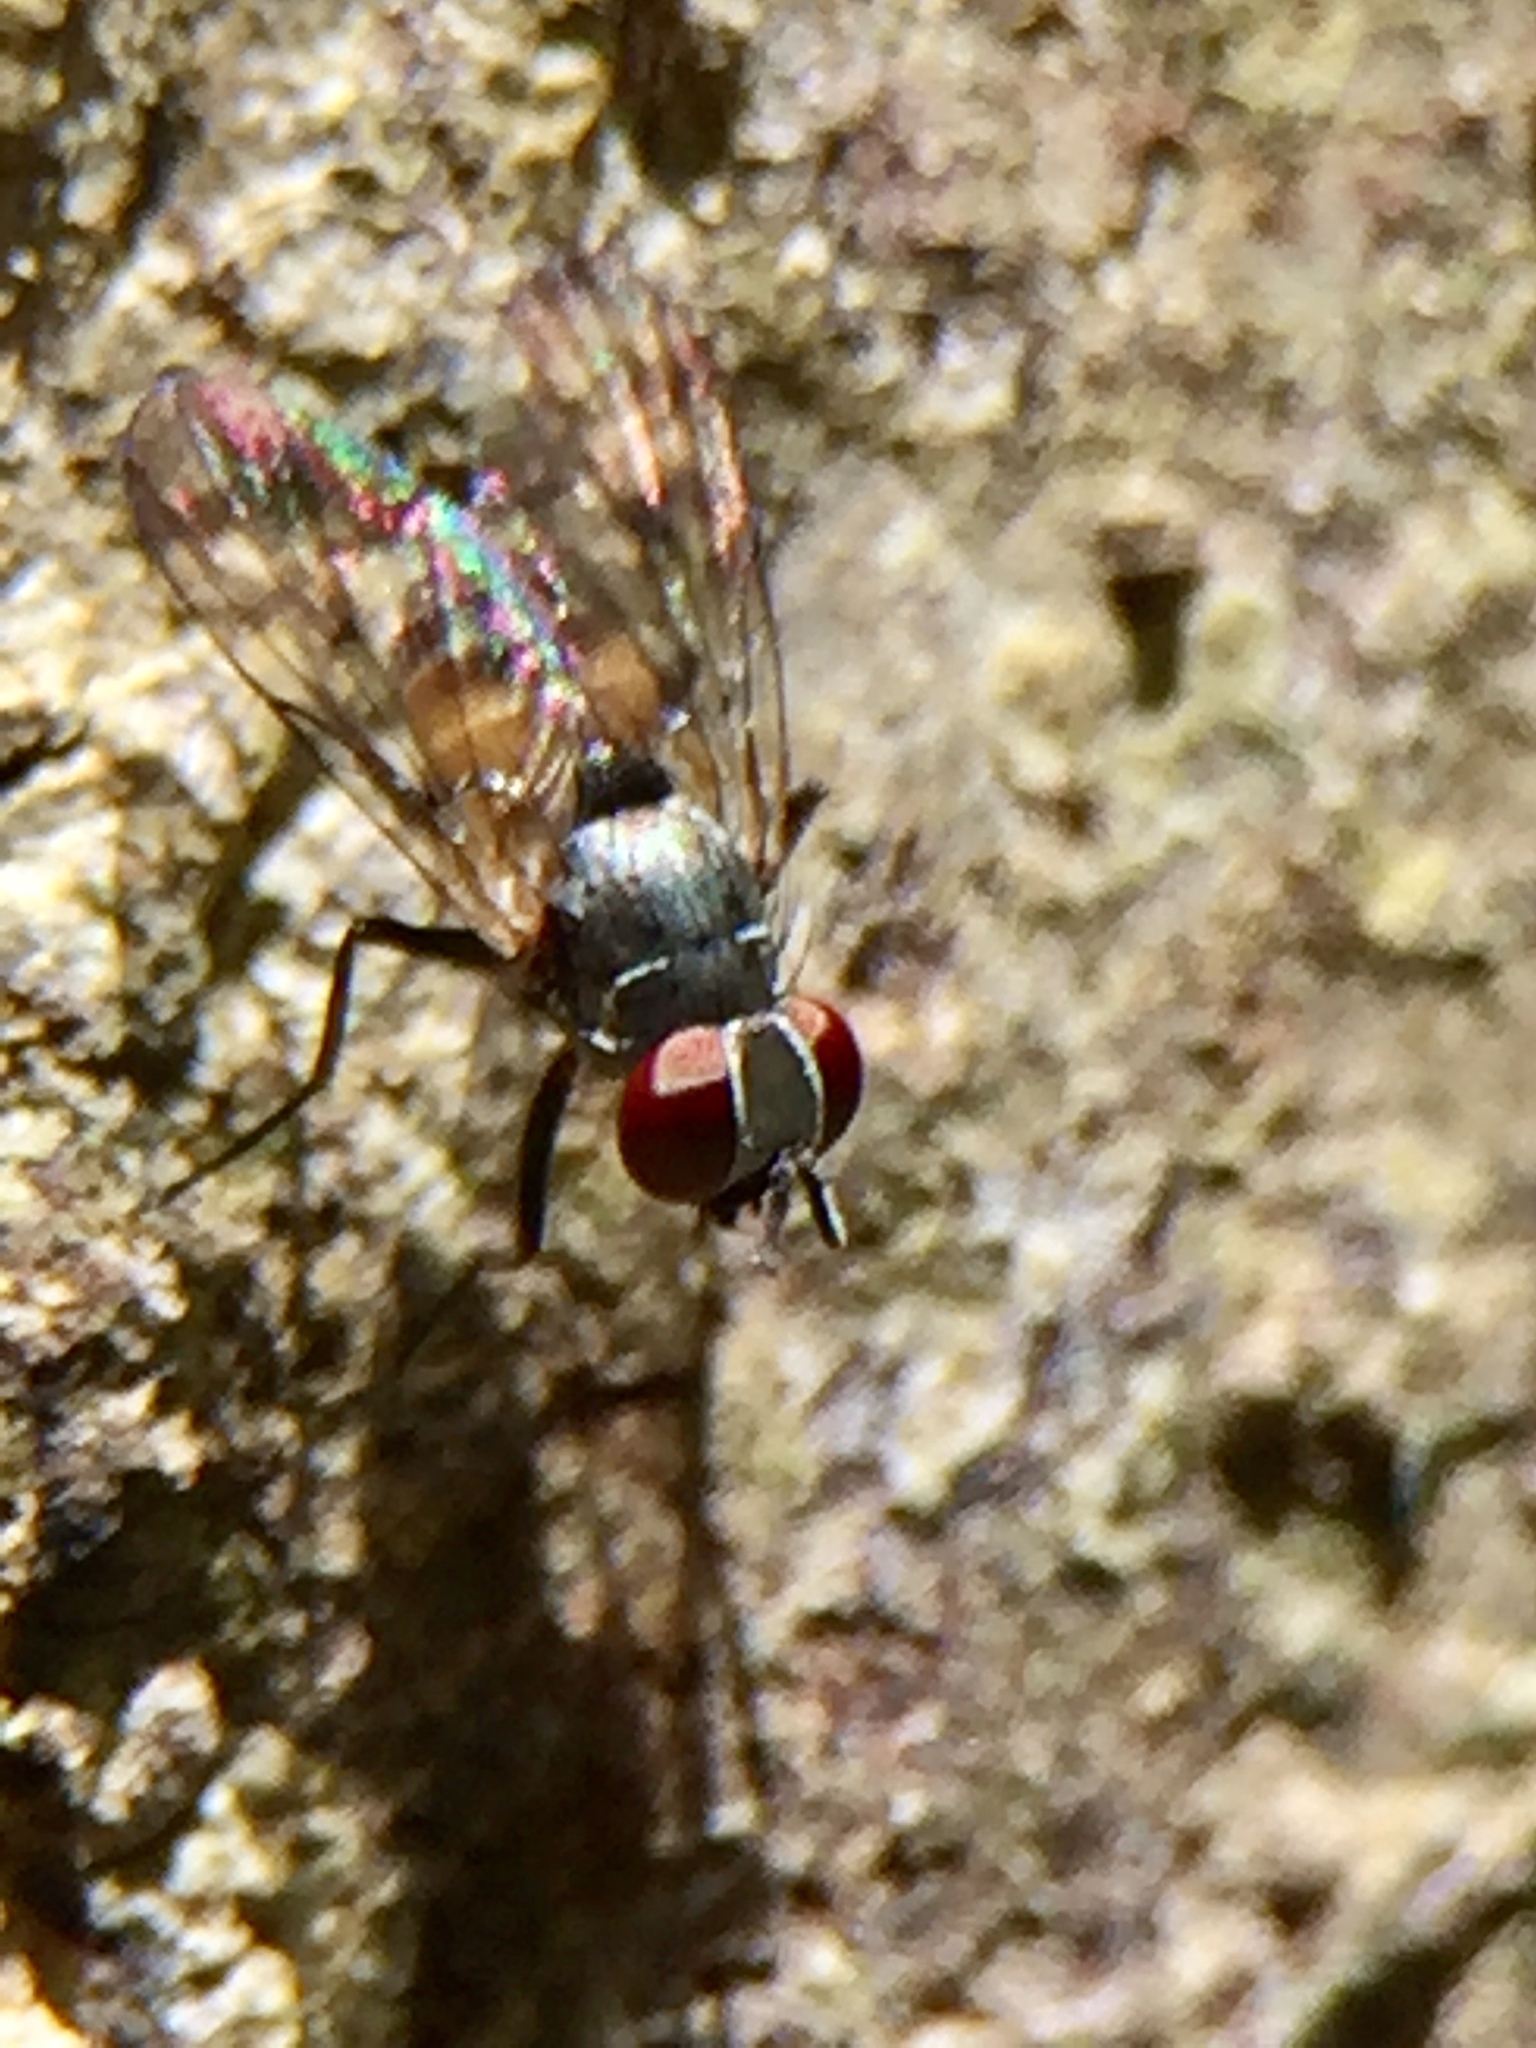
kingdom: Animalia
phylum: Arthropoda
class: Insecta
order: Diptera
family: Muscidae
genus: Spilogona
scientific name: Spilogona flaviventris
